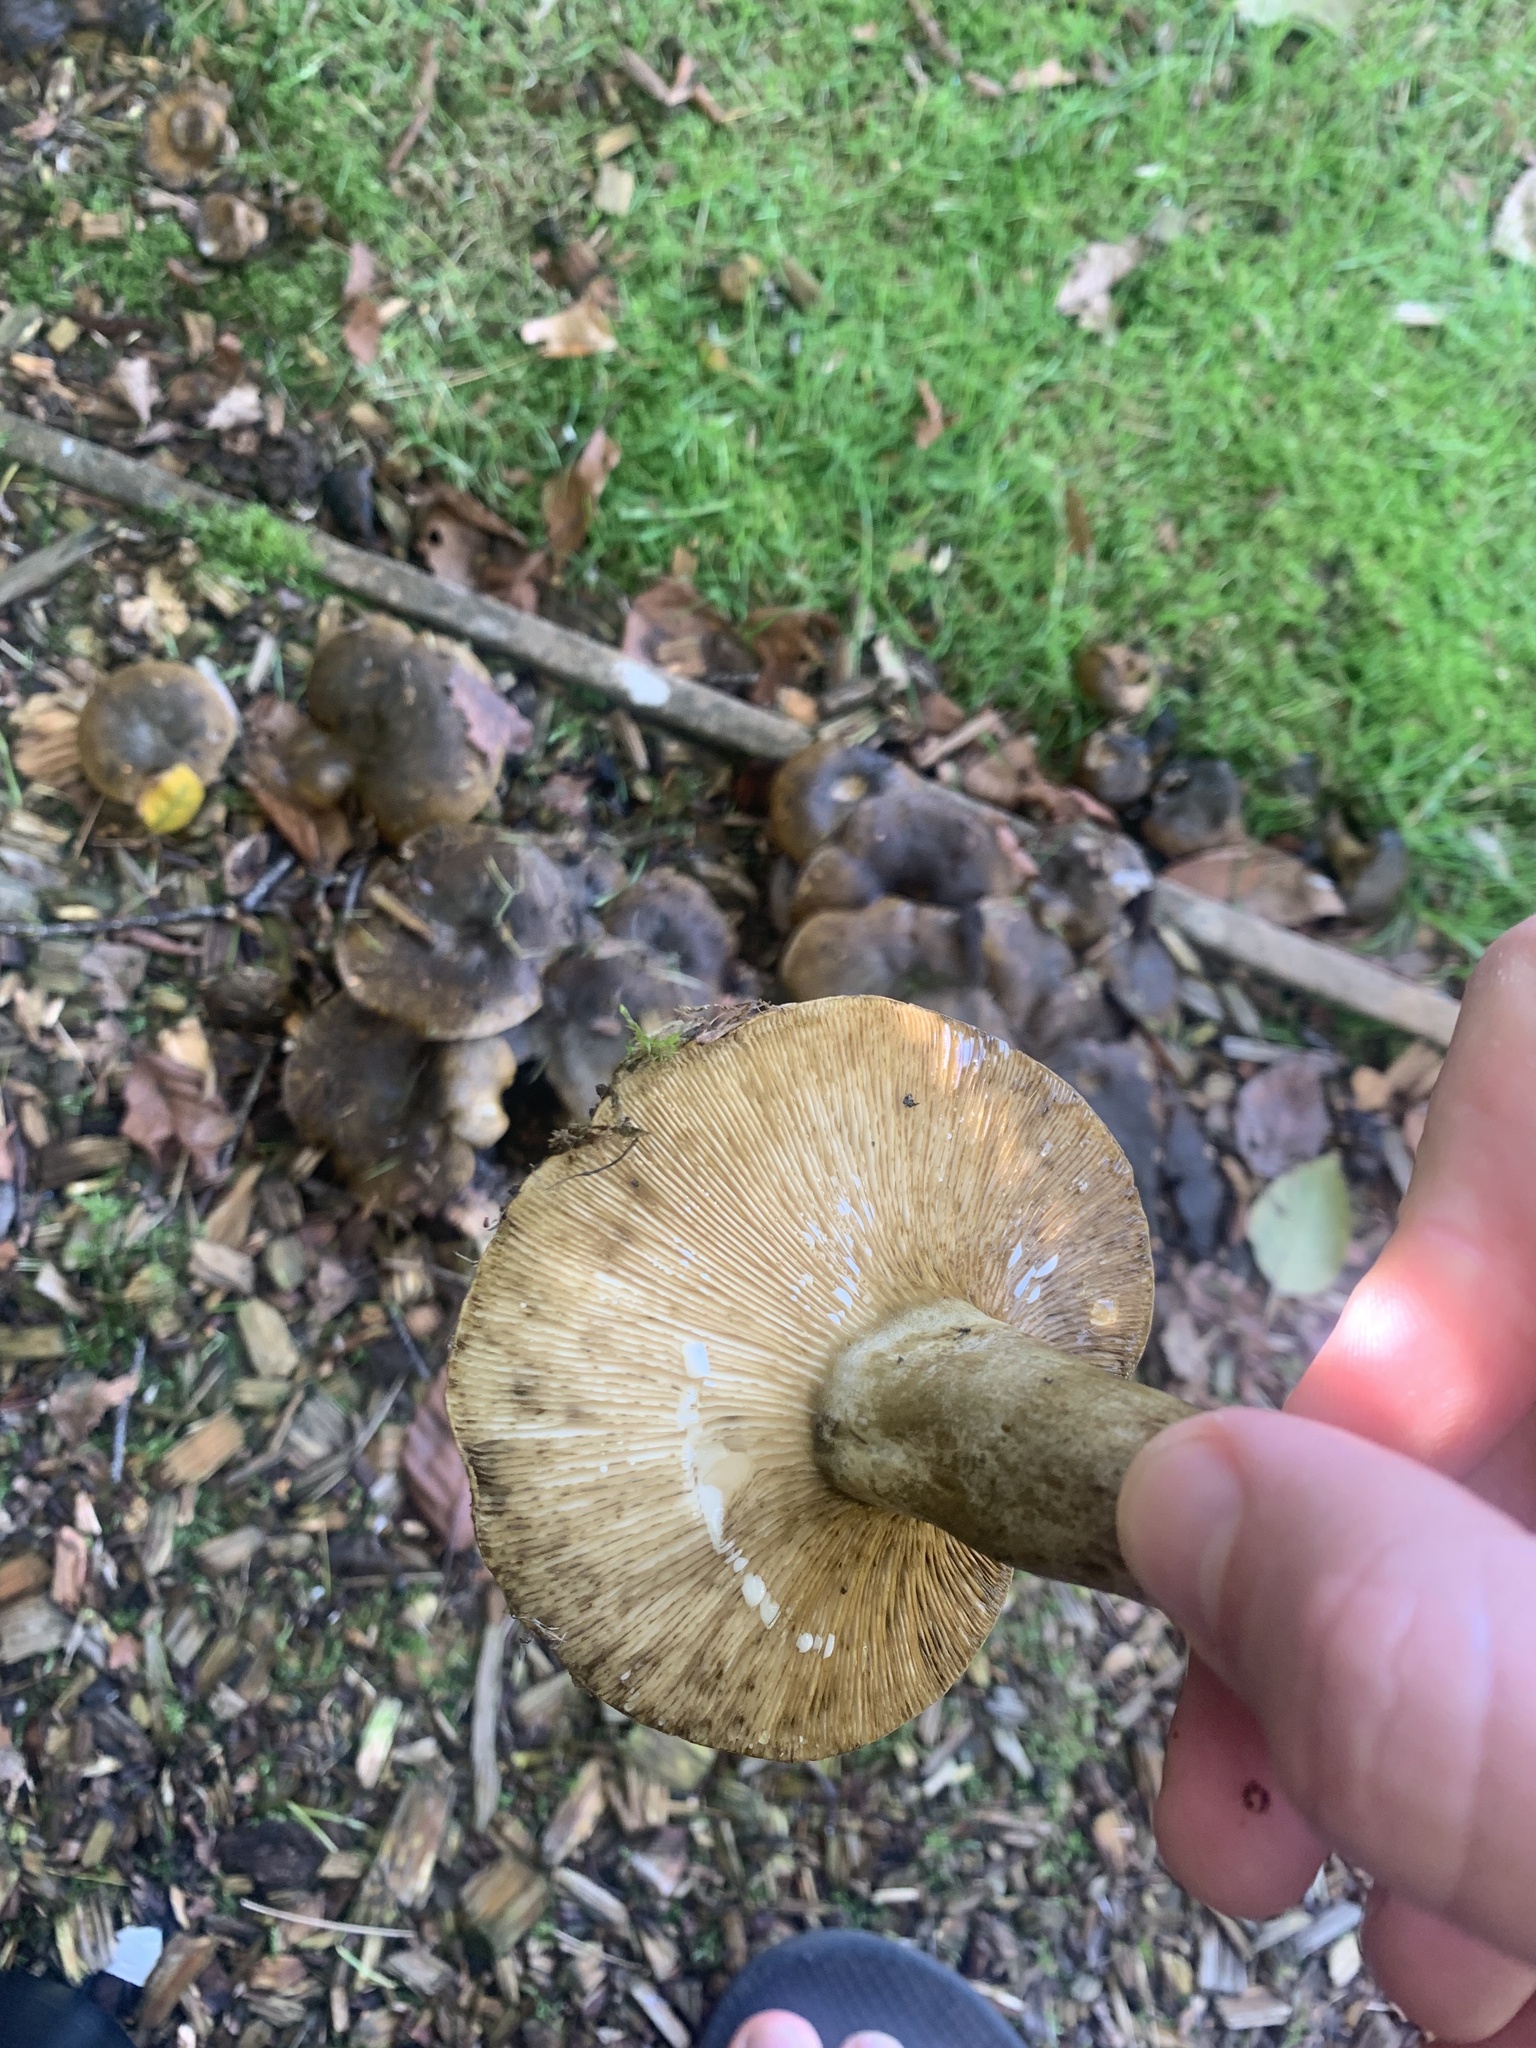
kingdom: Fungi
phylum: Basidiomycota
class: Agaricomycetes
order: Russulales
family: Russulaceae
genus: Lactarius
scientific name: Lactarius turpis
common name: Ugly milk-cap
